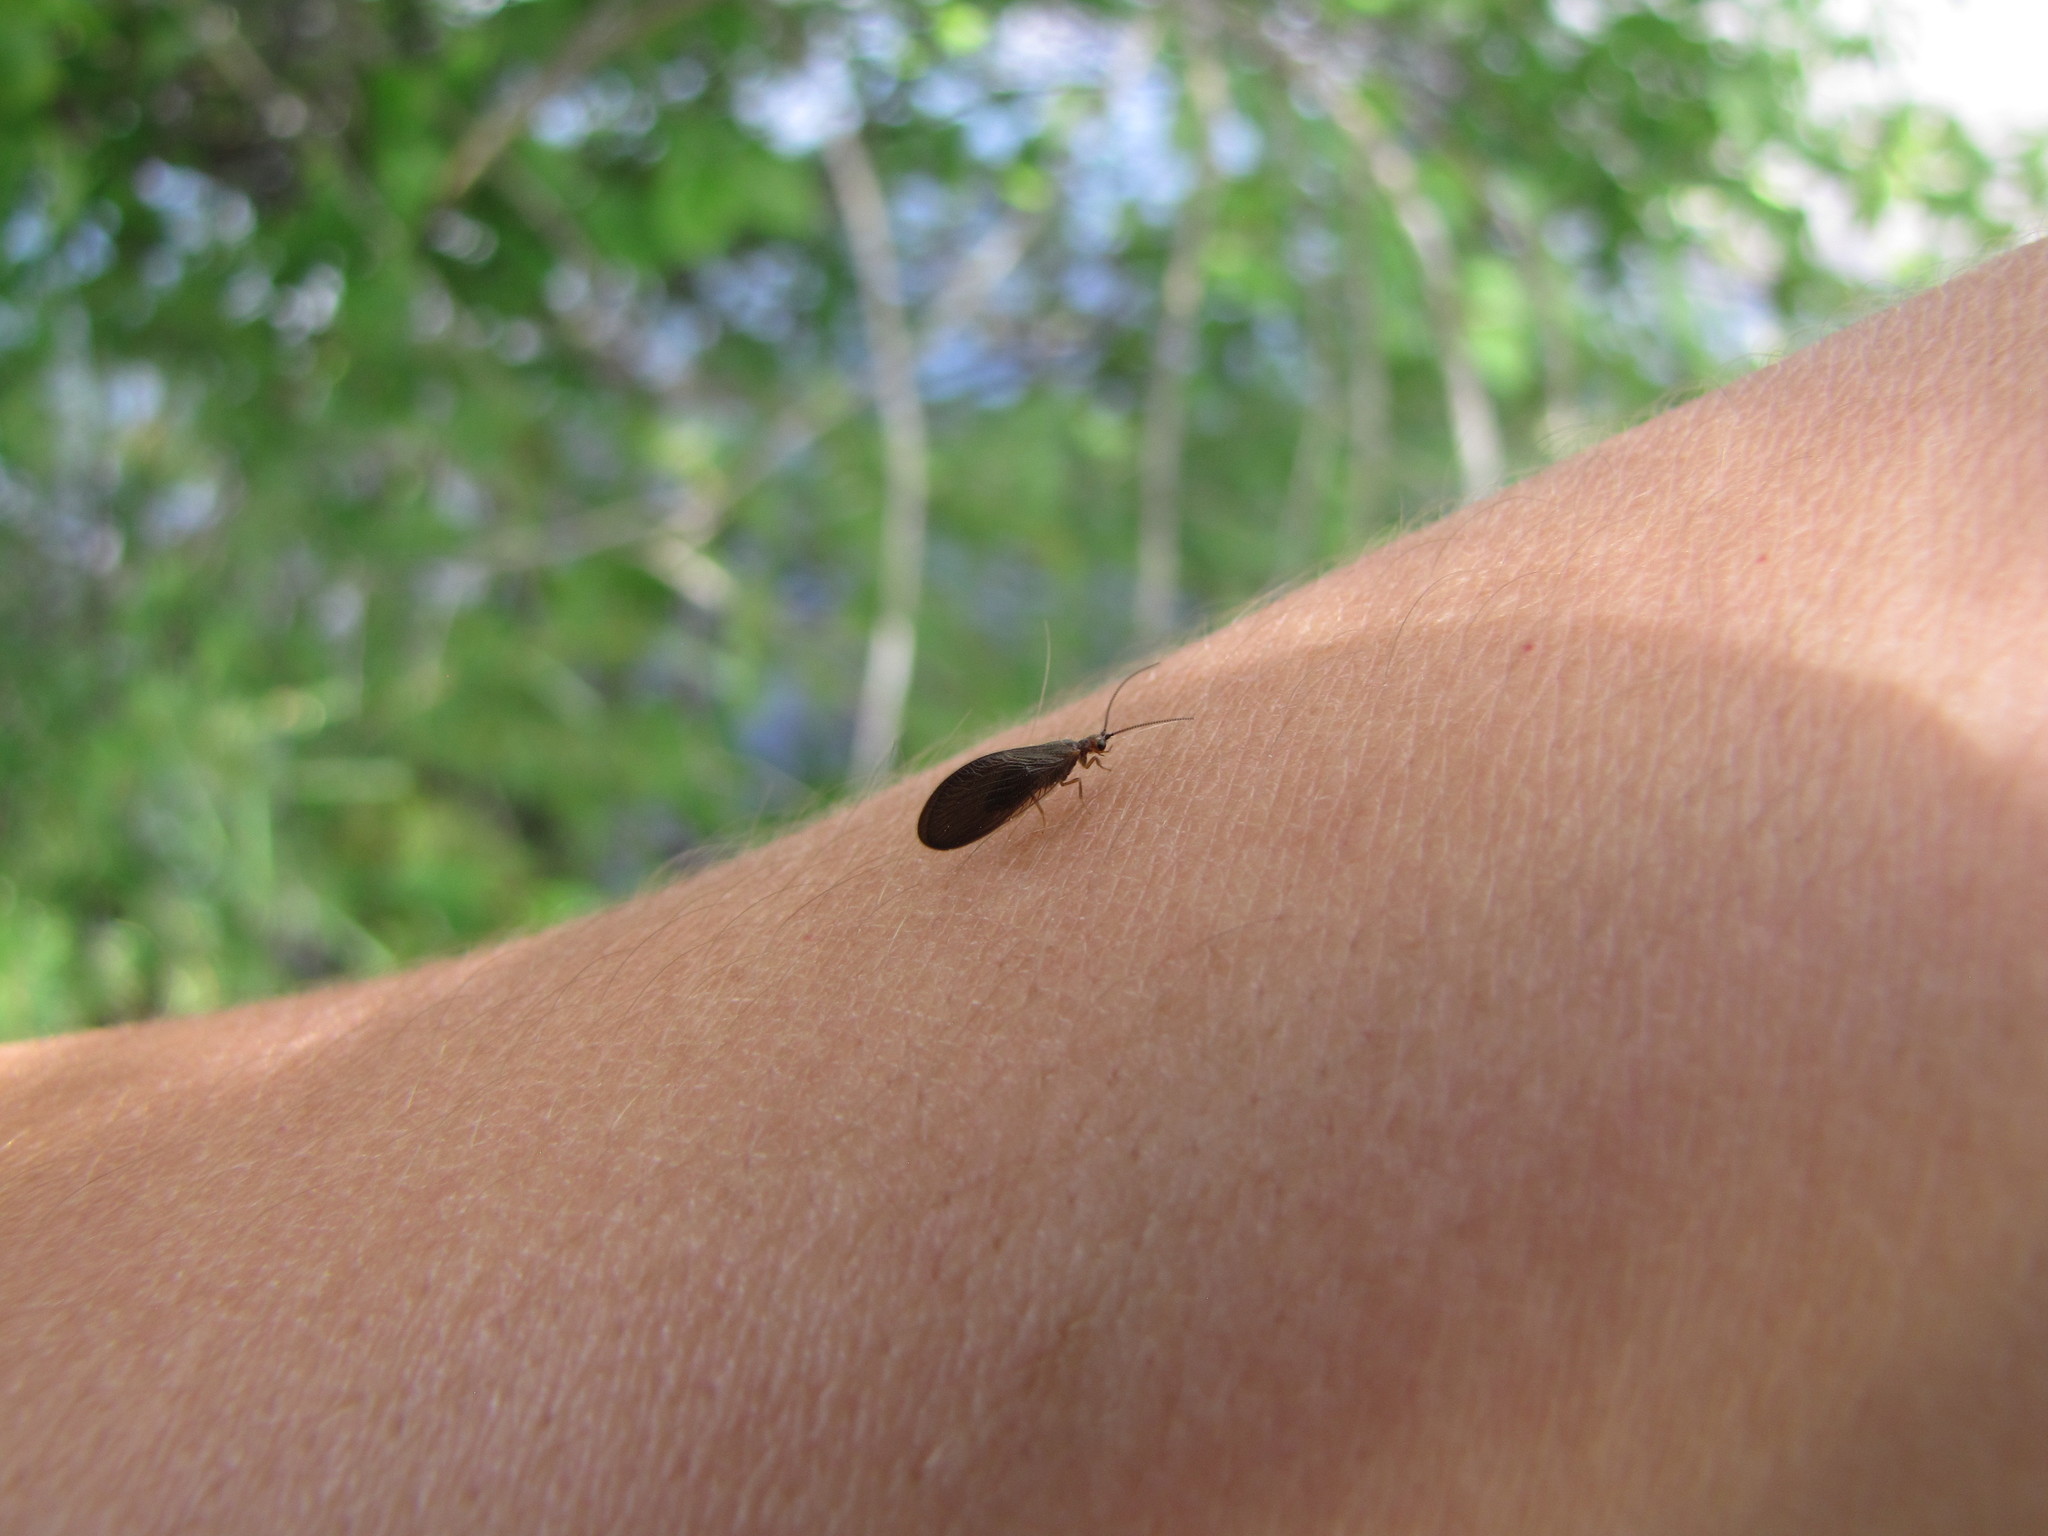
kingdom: Animalia
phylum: Arthropoda
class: Insecta
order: Neuroptera
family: Sisyridae
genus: Sisyra
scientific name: Sisyra nigra
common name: Black spongillafly
